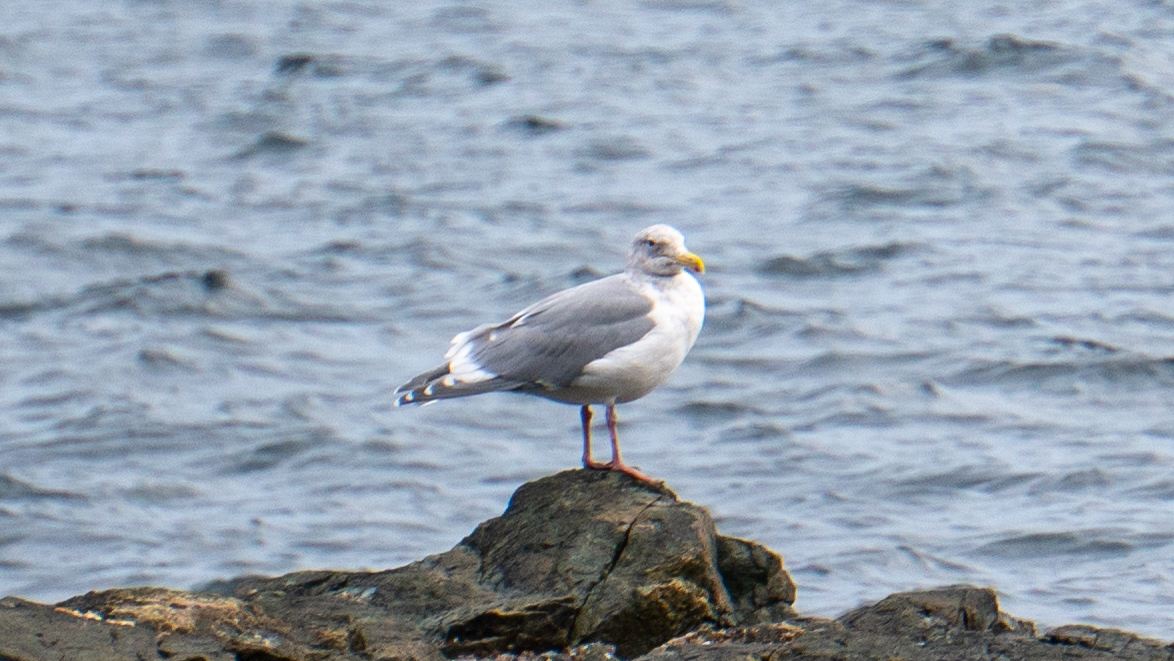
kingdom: Animalia
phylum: Chordata
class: Aves
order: Charadriiformes
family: Laridae
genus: Larus
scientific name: Larus
